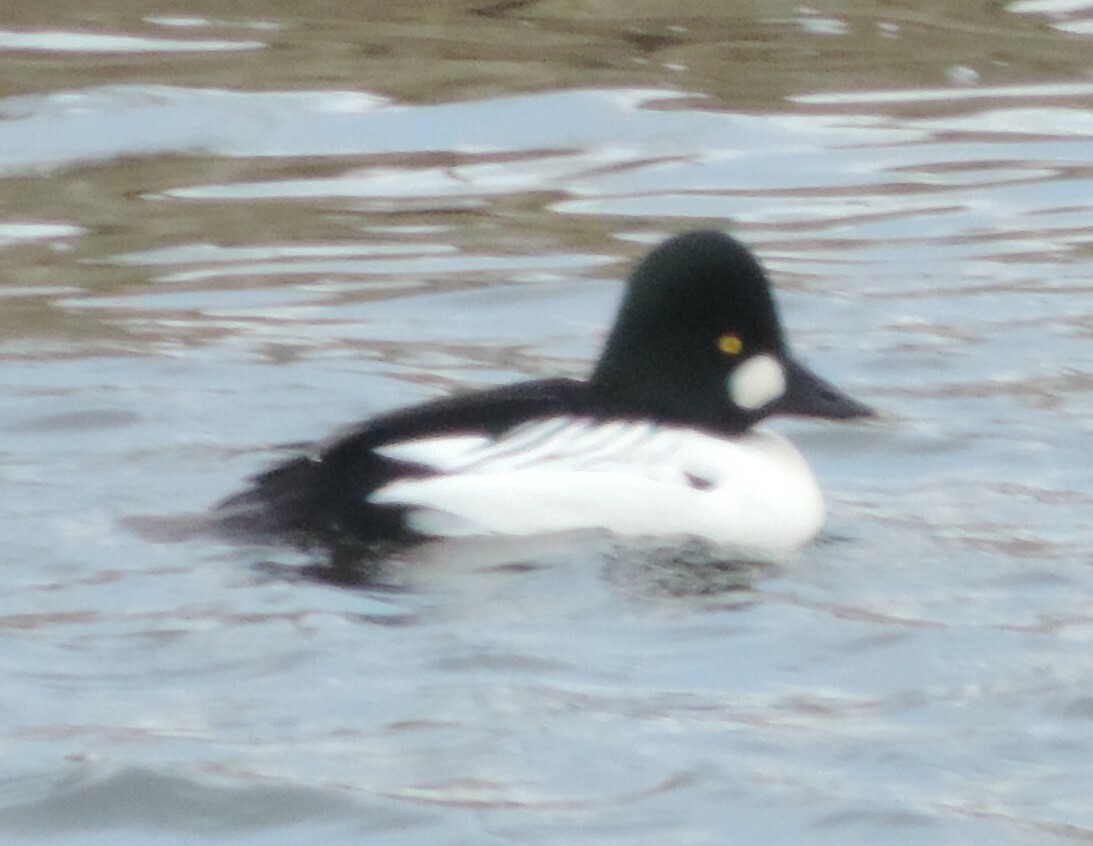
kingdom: Animalia
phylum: Chordata
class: Aves
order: Anseriformes
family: Anatidae
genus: Bucephala
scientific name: Bucephala clangula
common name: Common goldeneye
